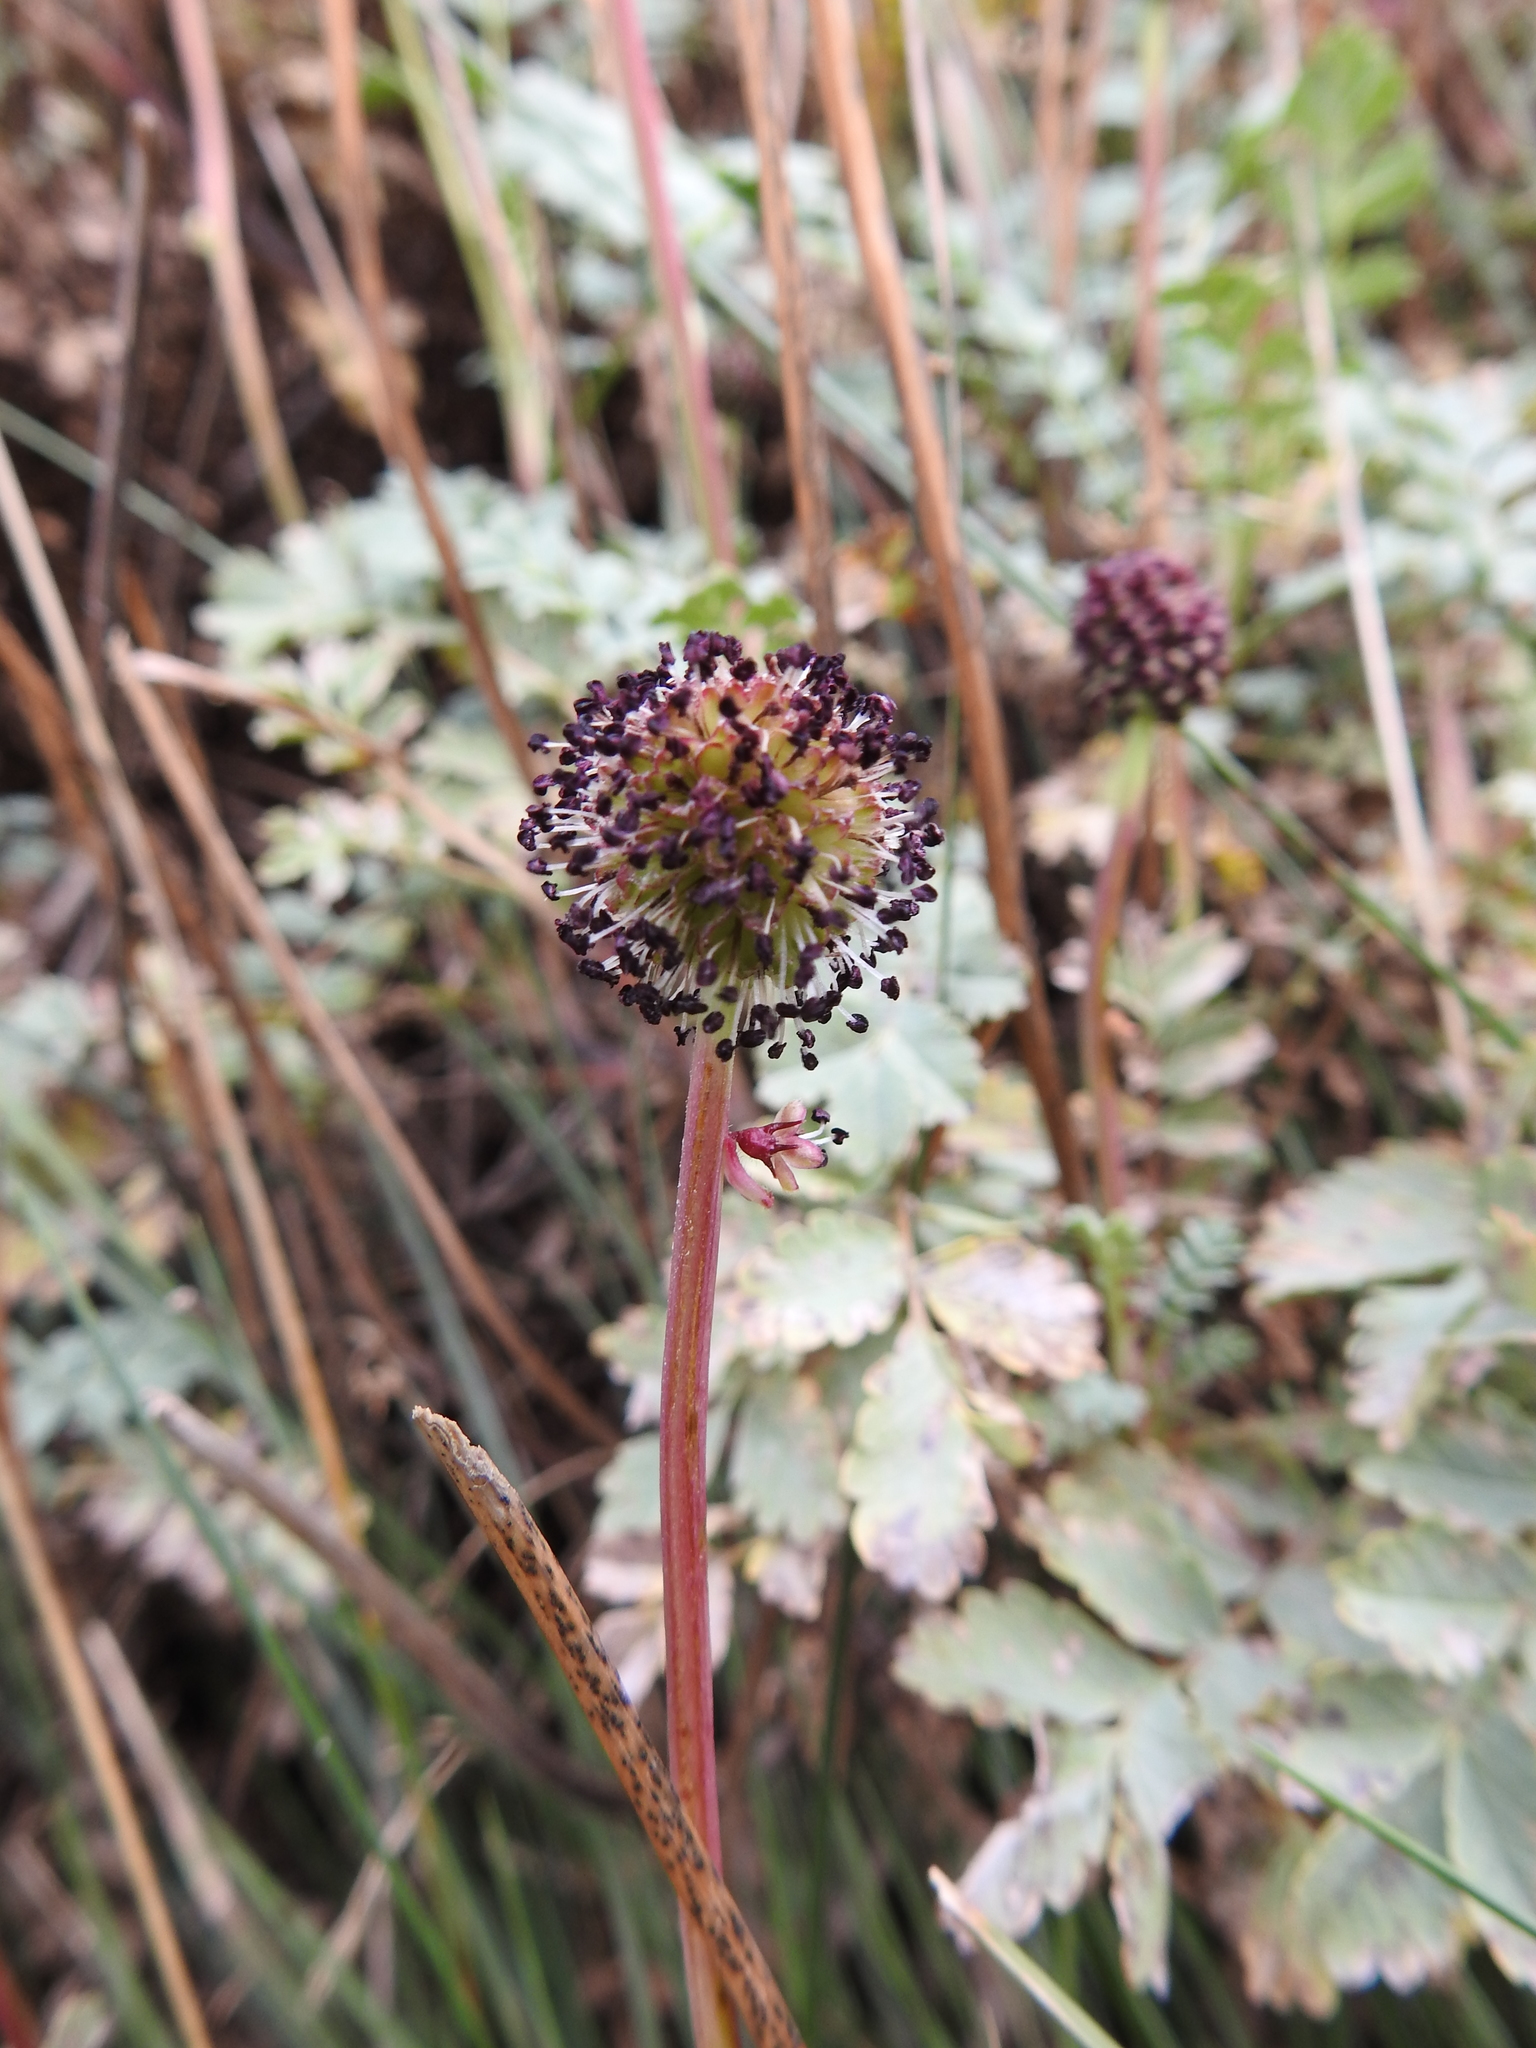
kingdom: Plantae
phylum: Tracheophyta
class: Magnoliopsida
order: Rosales
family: Rosaceae
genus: Acaena
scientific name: Acaena magellanica
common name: New zealand burr
